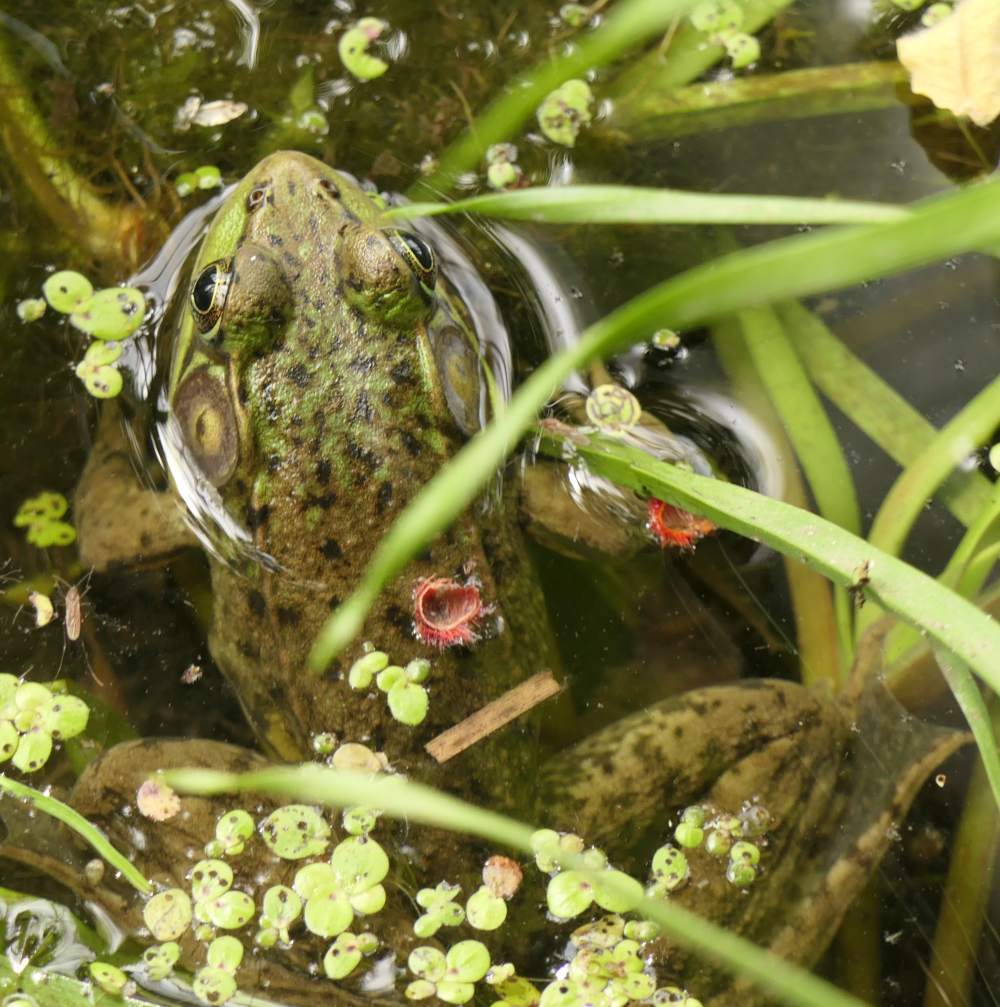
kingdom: Animalia
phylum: Chordata
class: Amphibia
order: Anura
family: Ranidae
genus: Lithobates
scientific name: Lithobates clamitans
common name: Green frog
